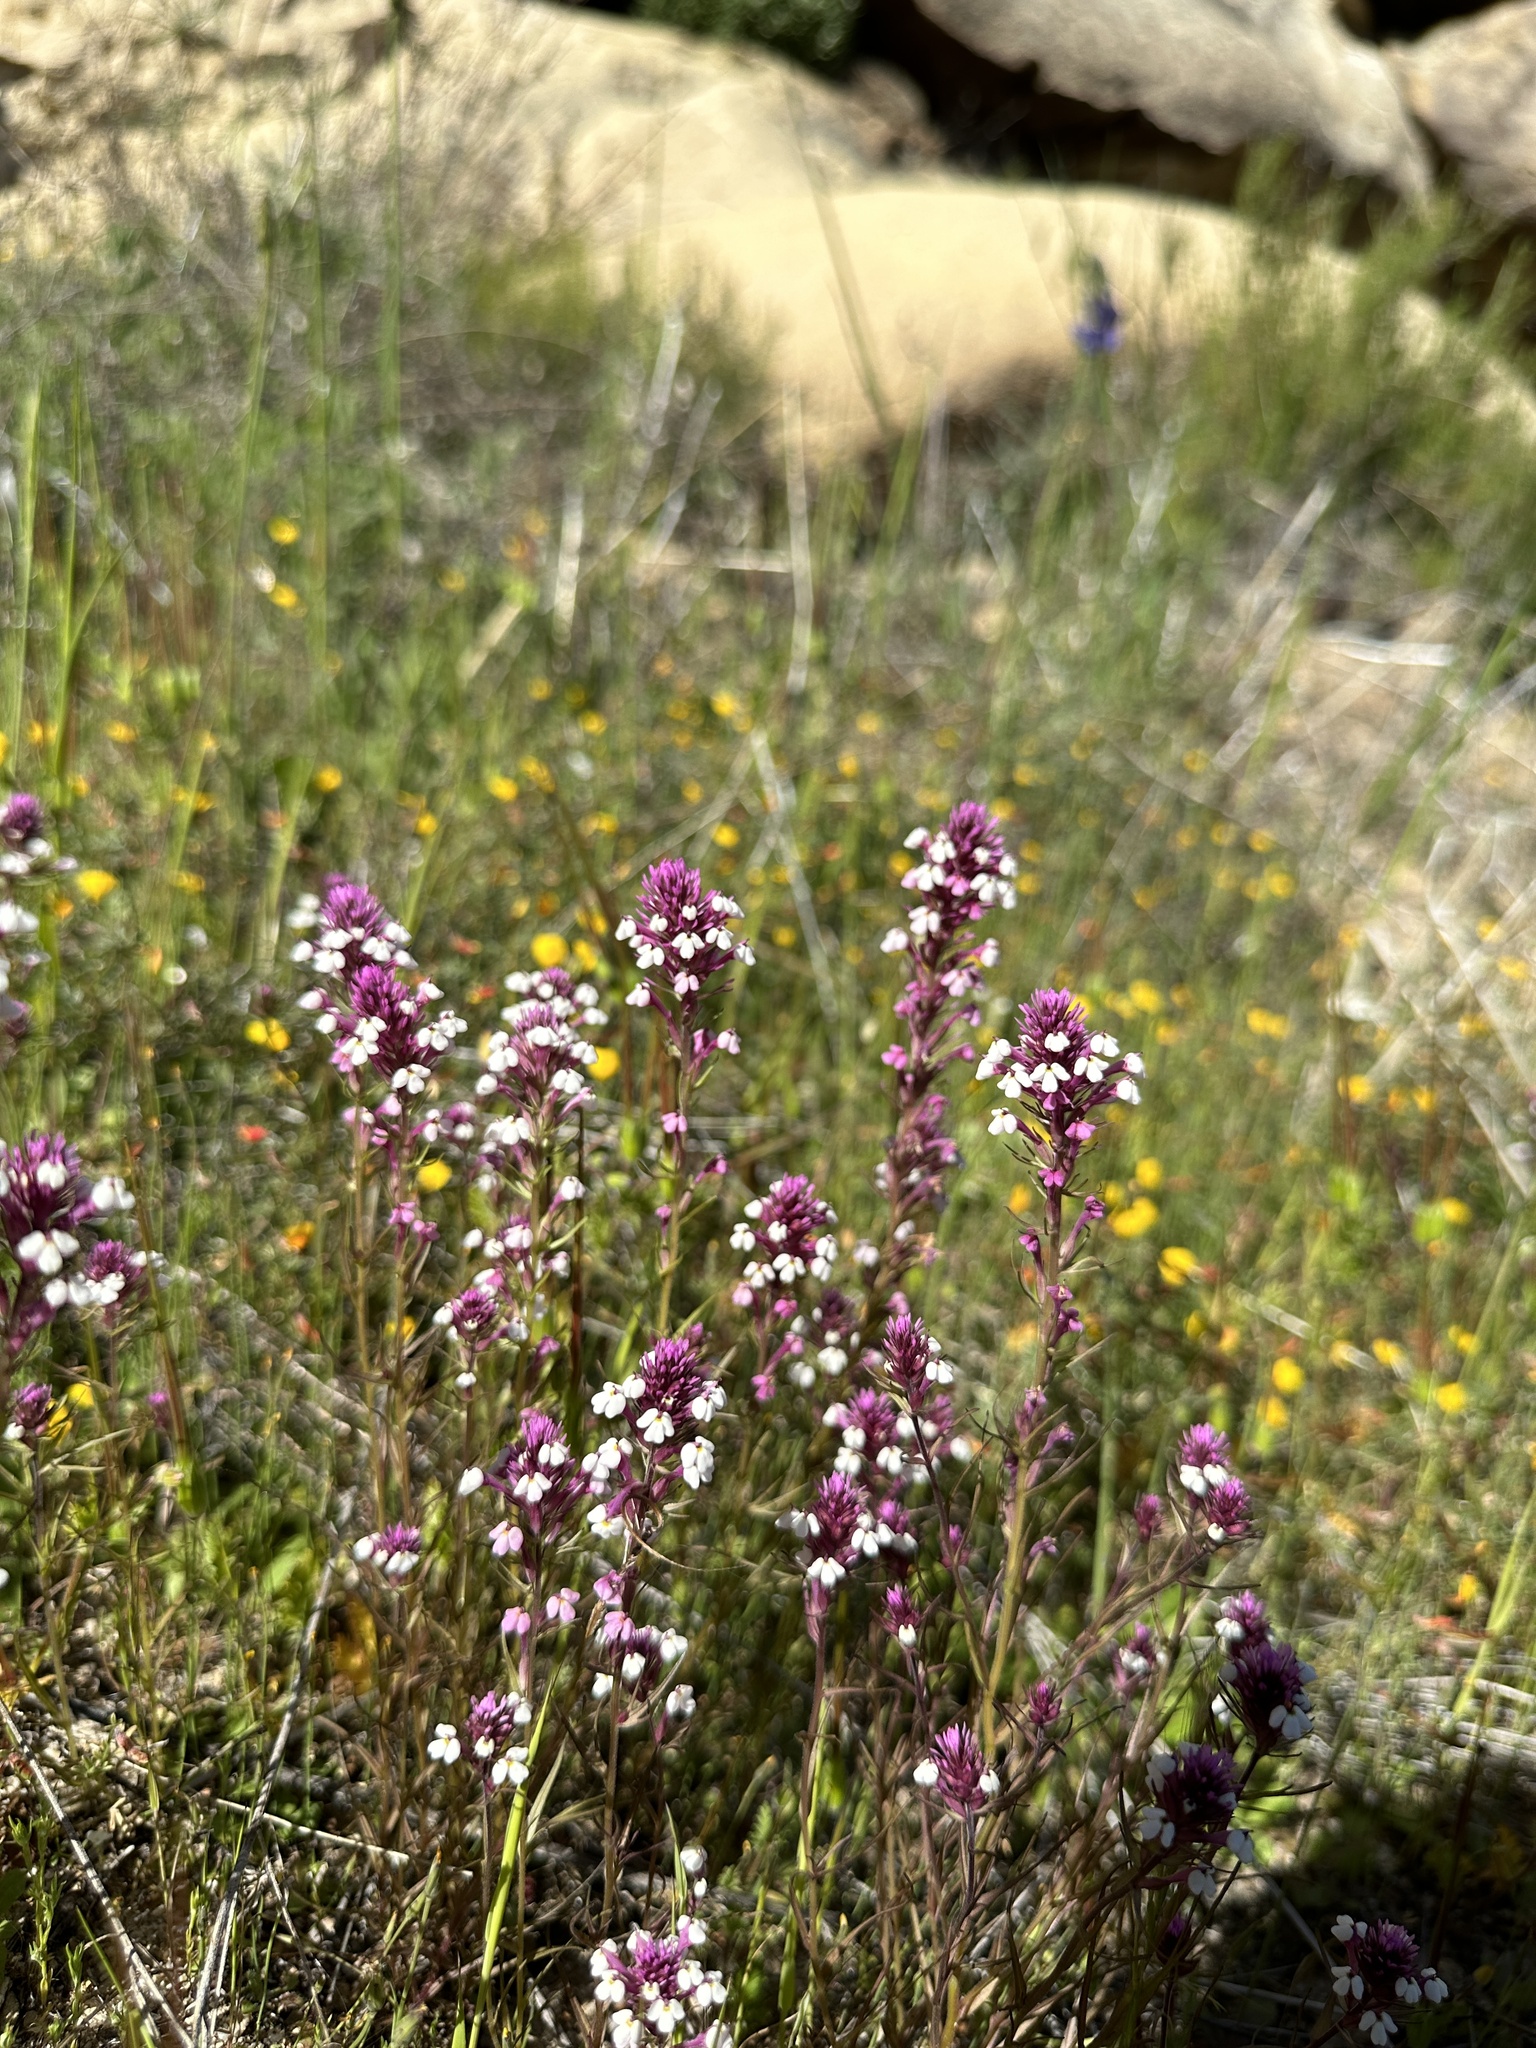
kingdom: Plantae
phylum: Tracheophyta
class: Magnoliopsida
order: Lamiales
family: Orobanchaceae
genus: Triphysaria
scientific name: Triphysaria eriantha
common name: Johnny-tuck
